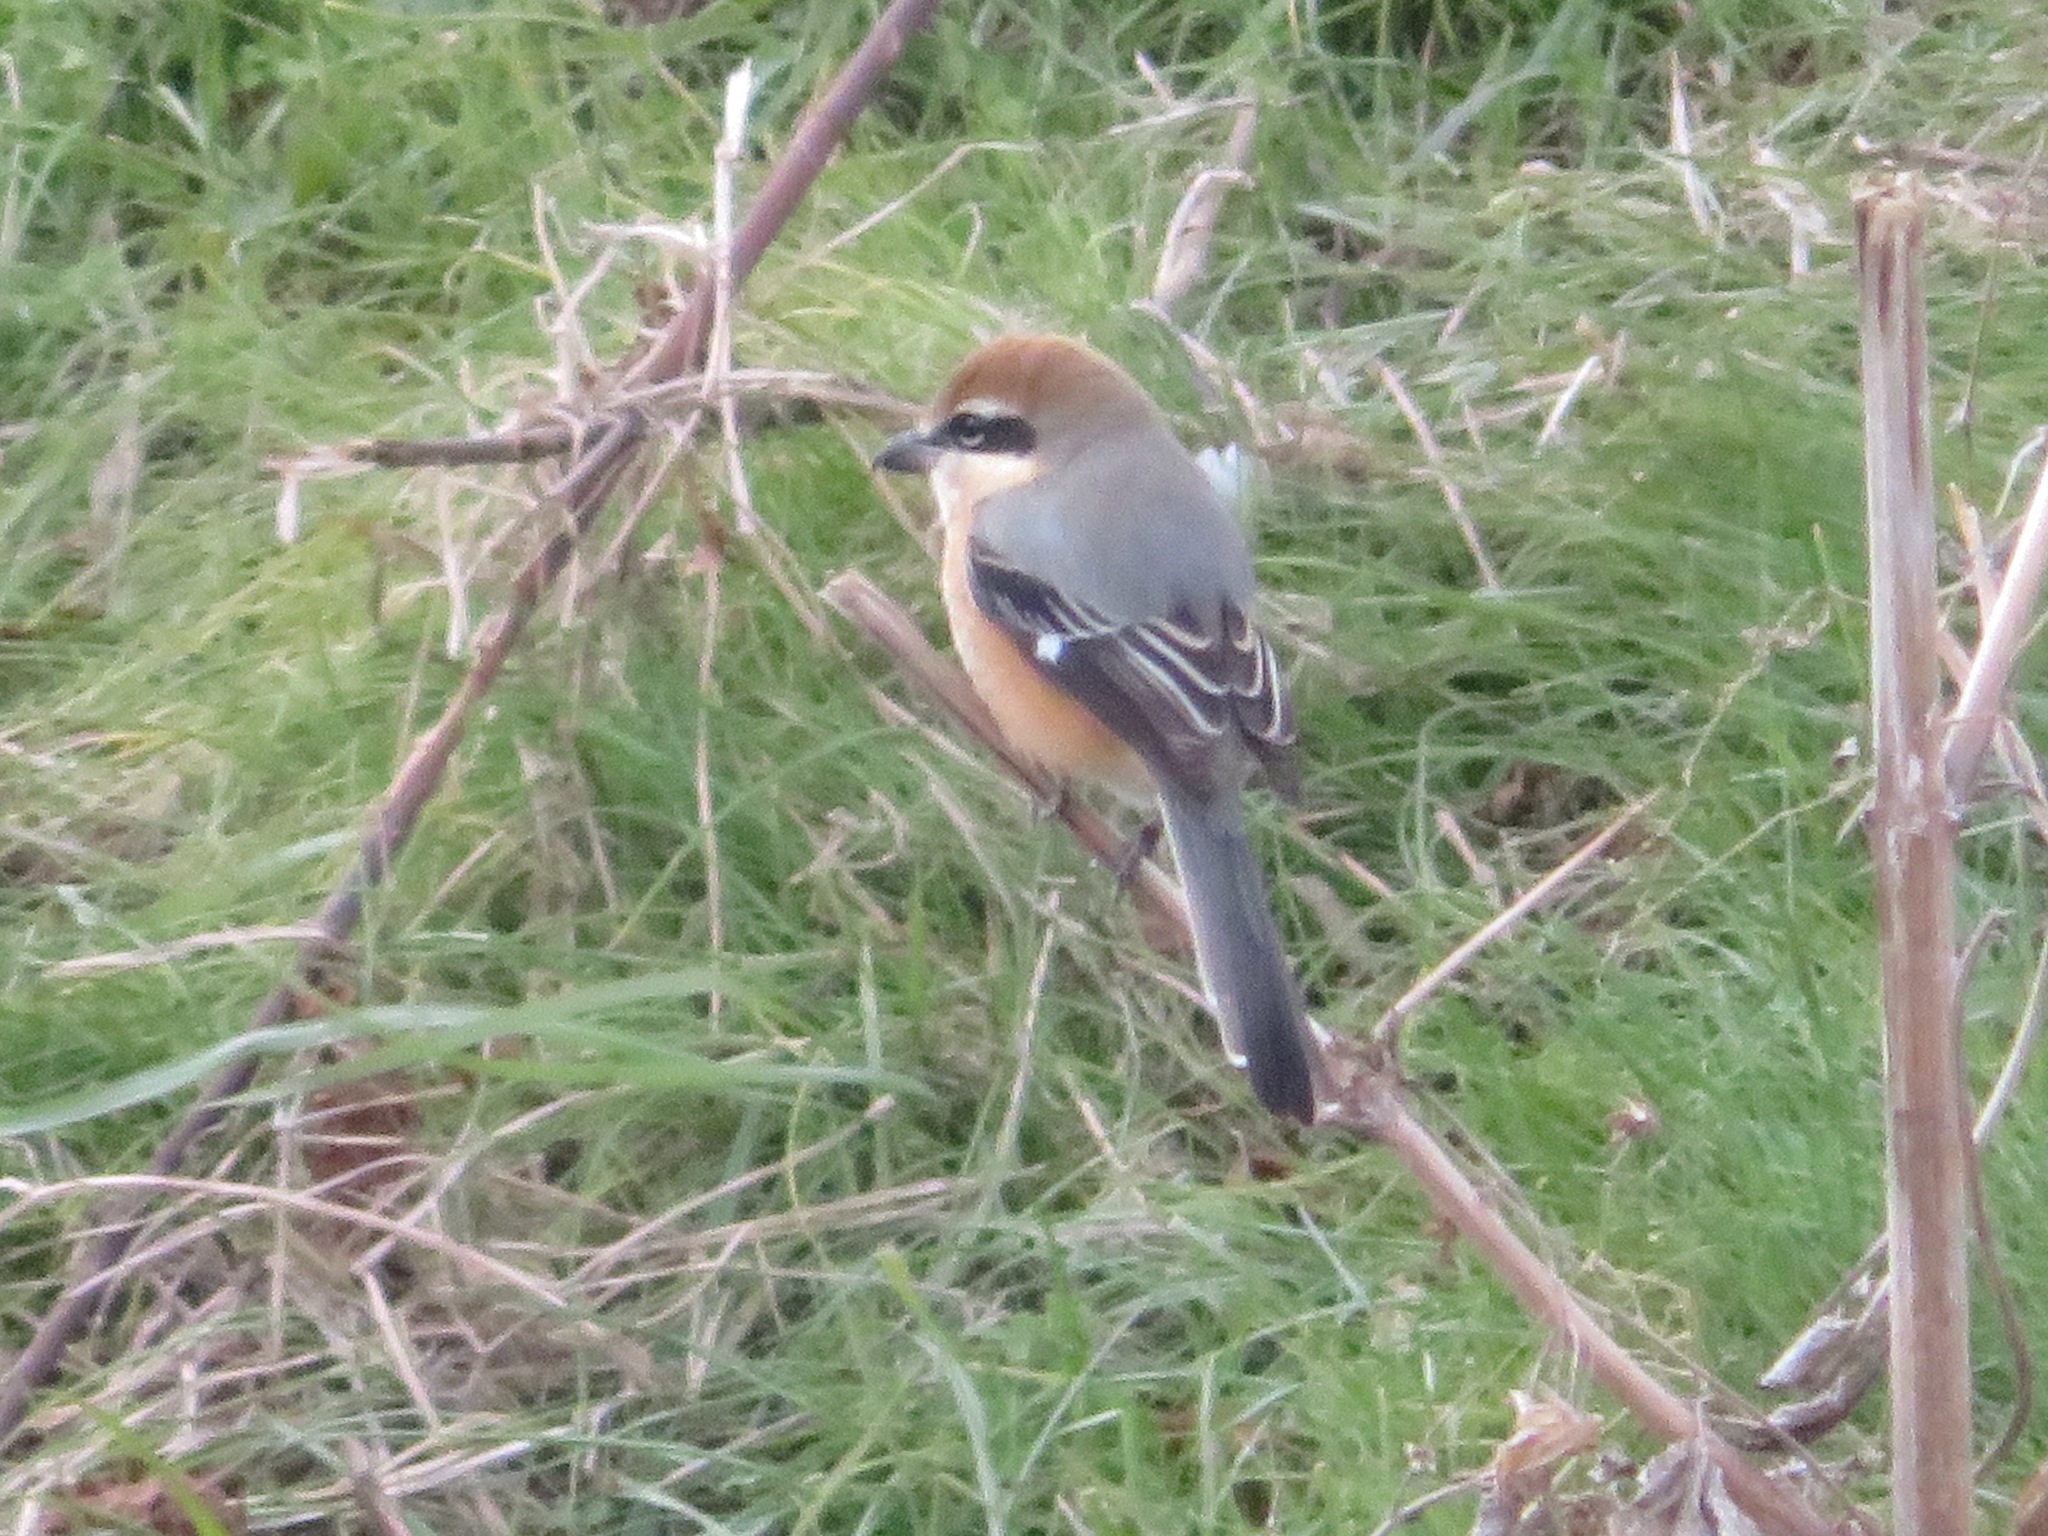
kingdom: Animalia
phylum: Chordata
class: Aves
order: Passeriformes
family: Laniidae
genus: Lanius
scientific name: Lanius bucephalus
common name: Bull-headed shrike
